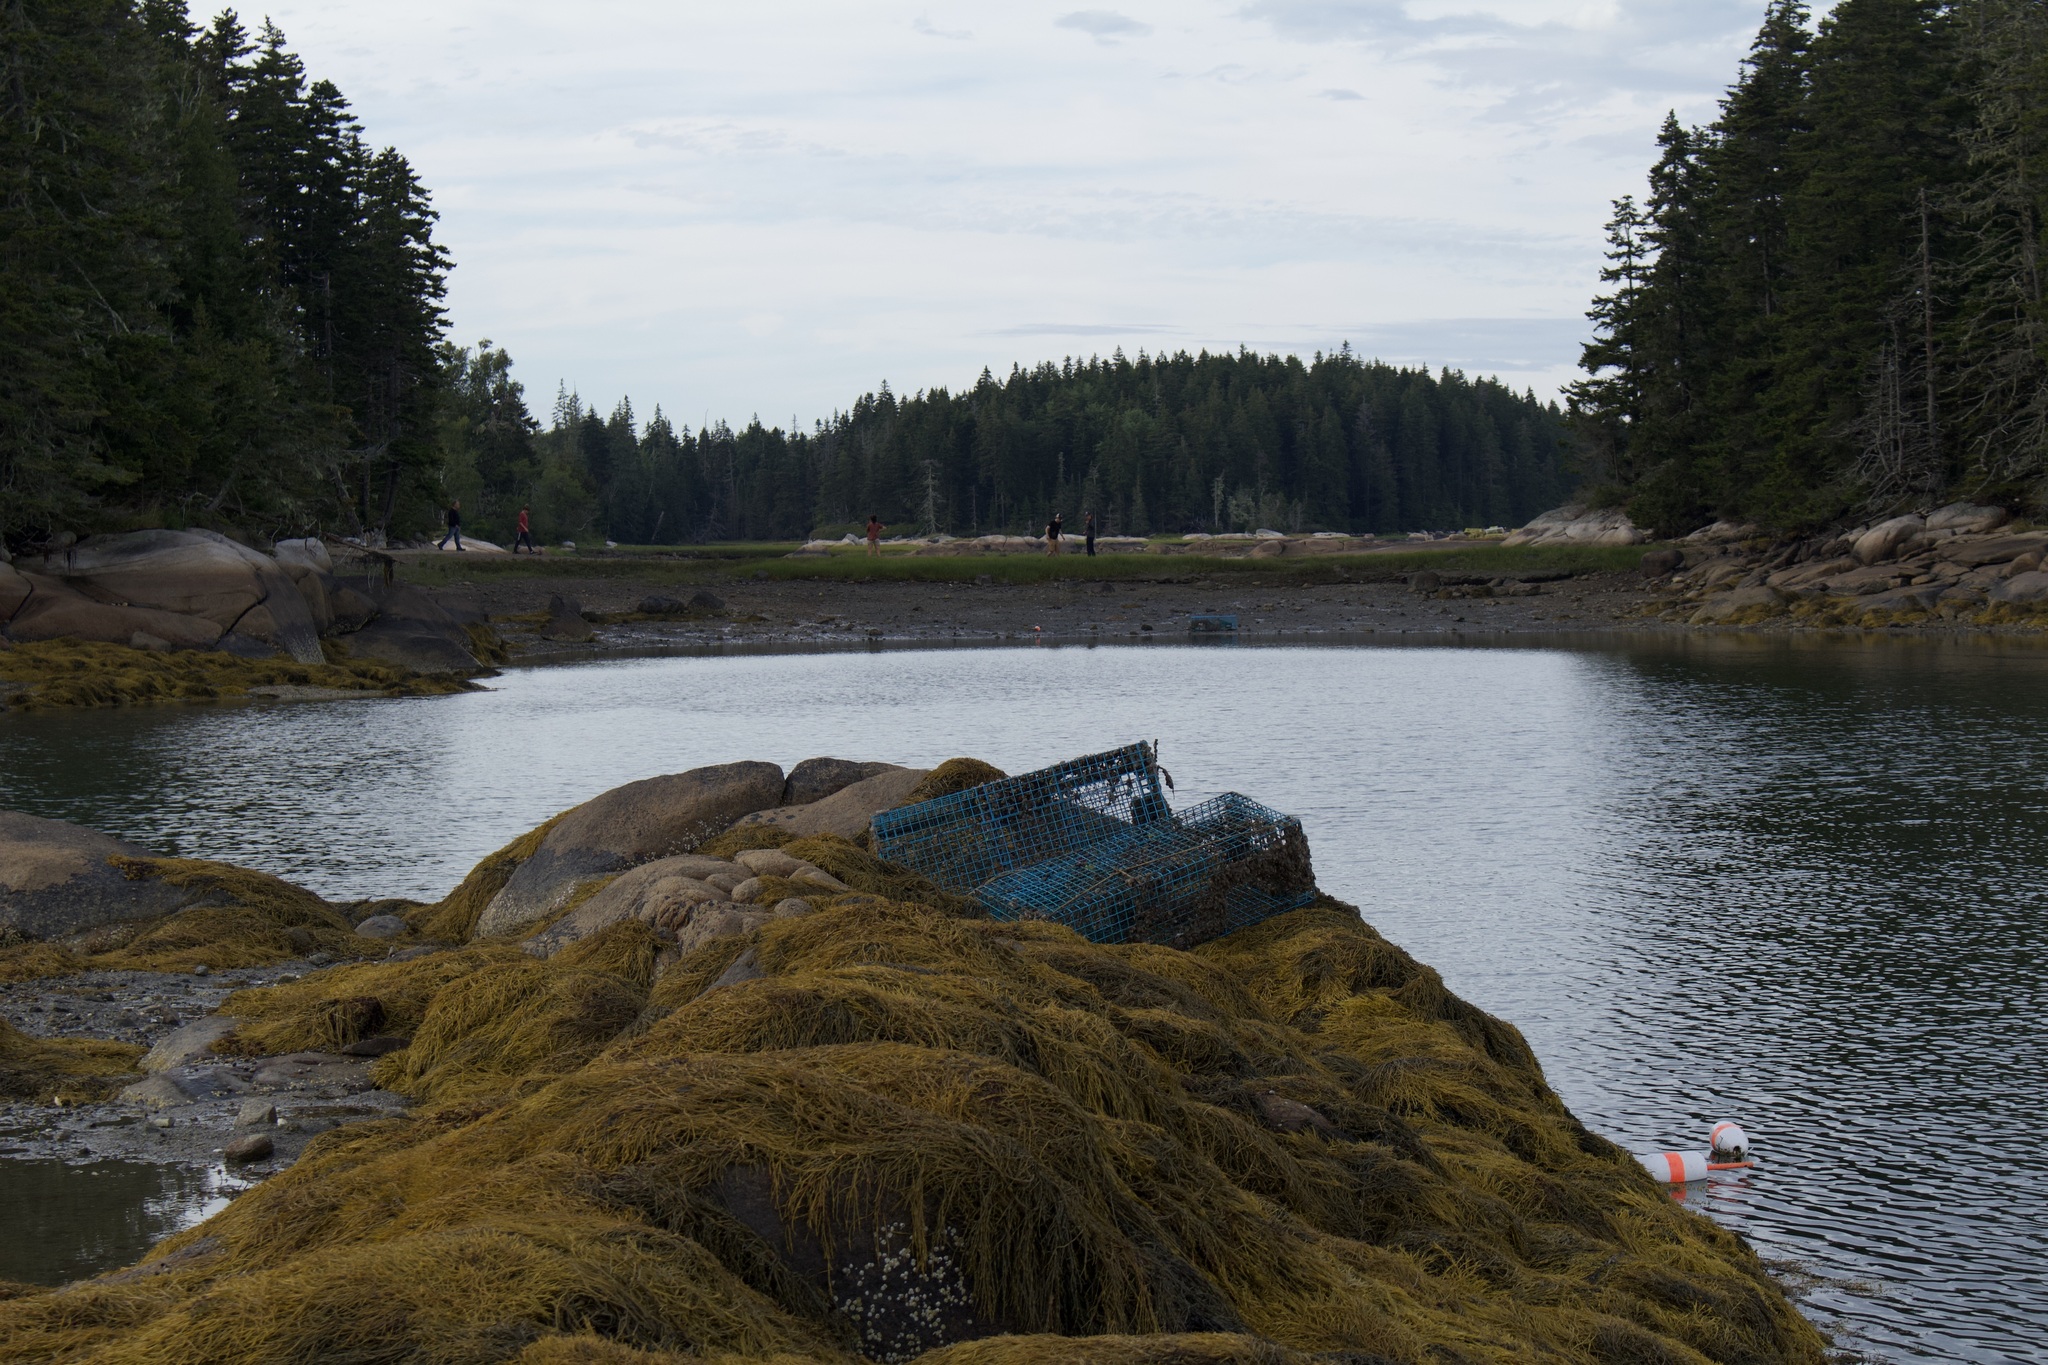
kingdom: Chromista
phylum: Ochrophyta
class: Phaeophyceae
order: Fucales
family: Fucaceae
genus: Ascophyllum
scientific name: Ascophyllum nodosum
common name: Knotted wrack
